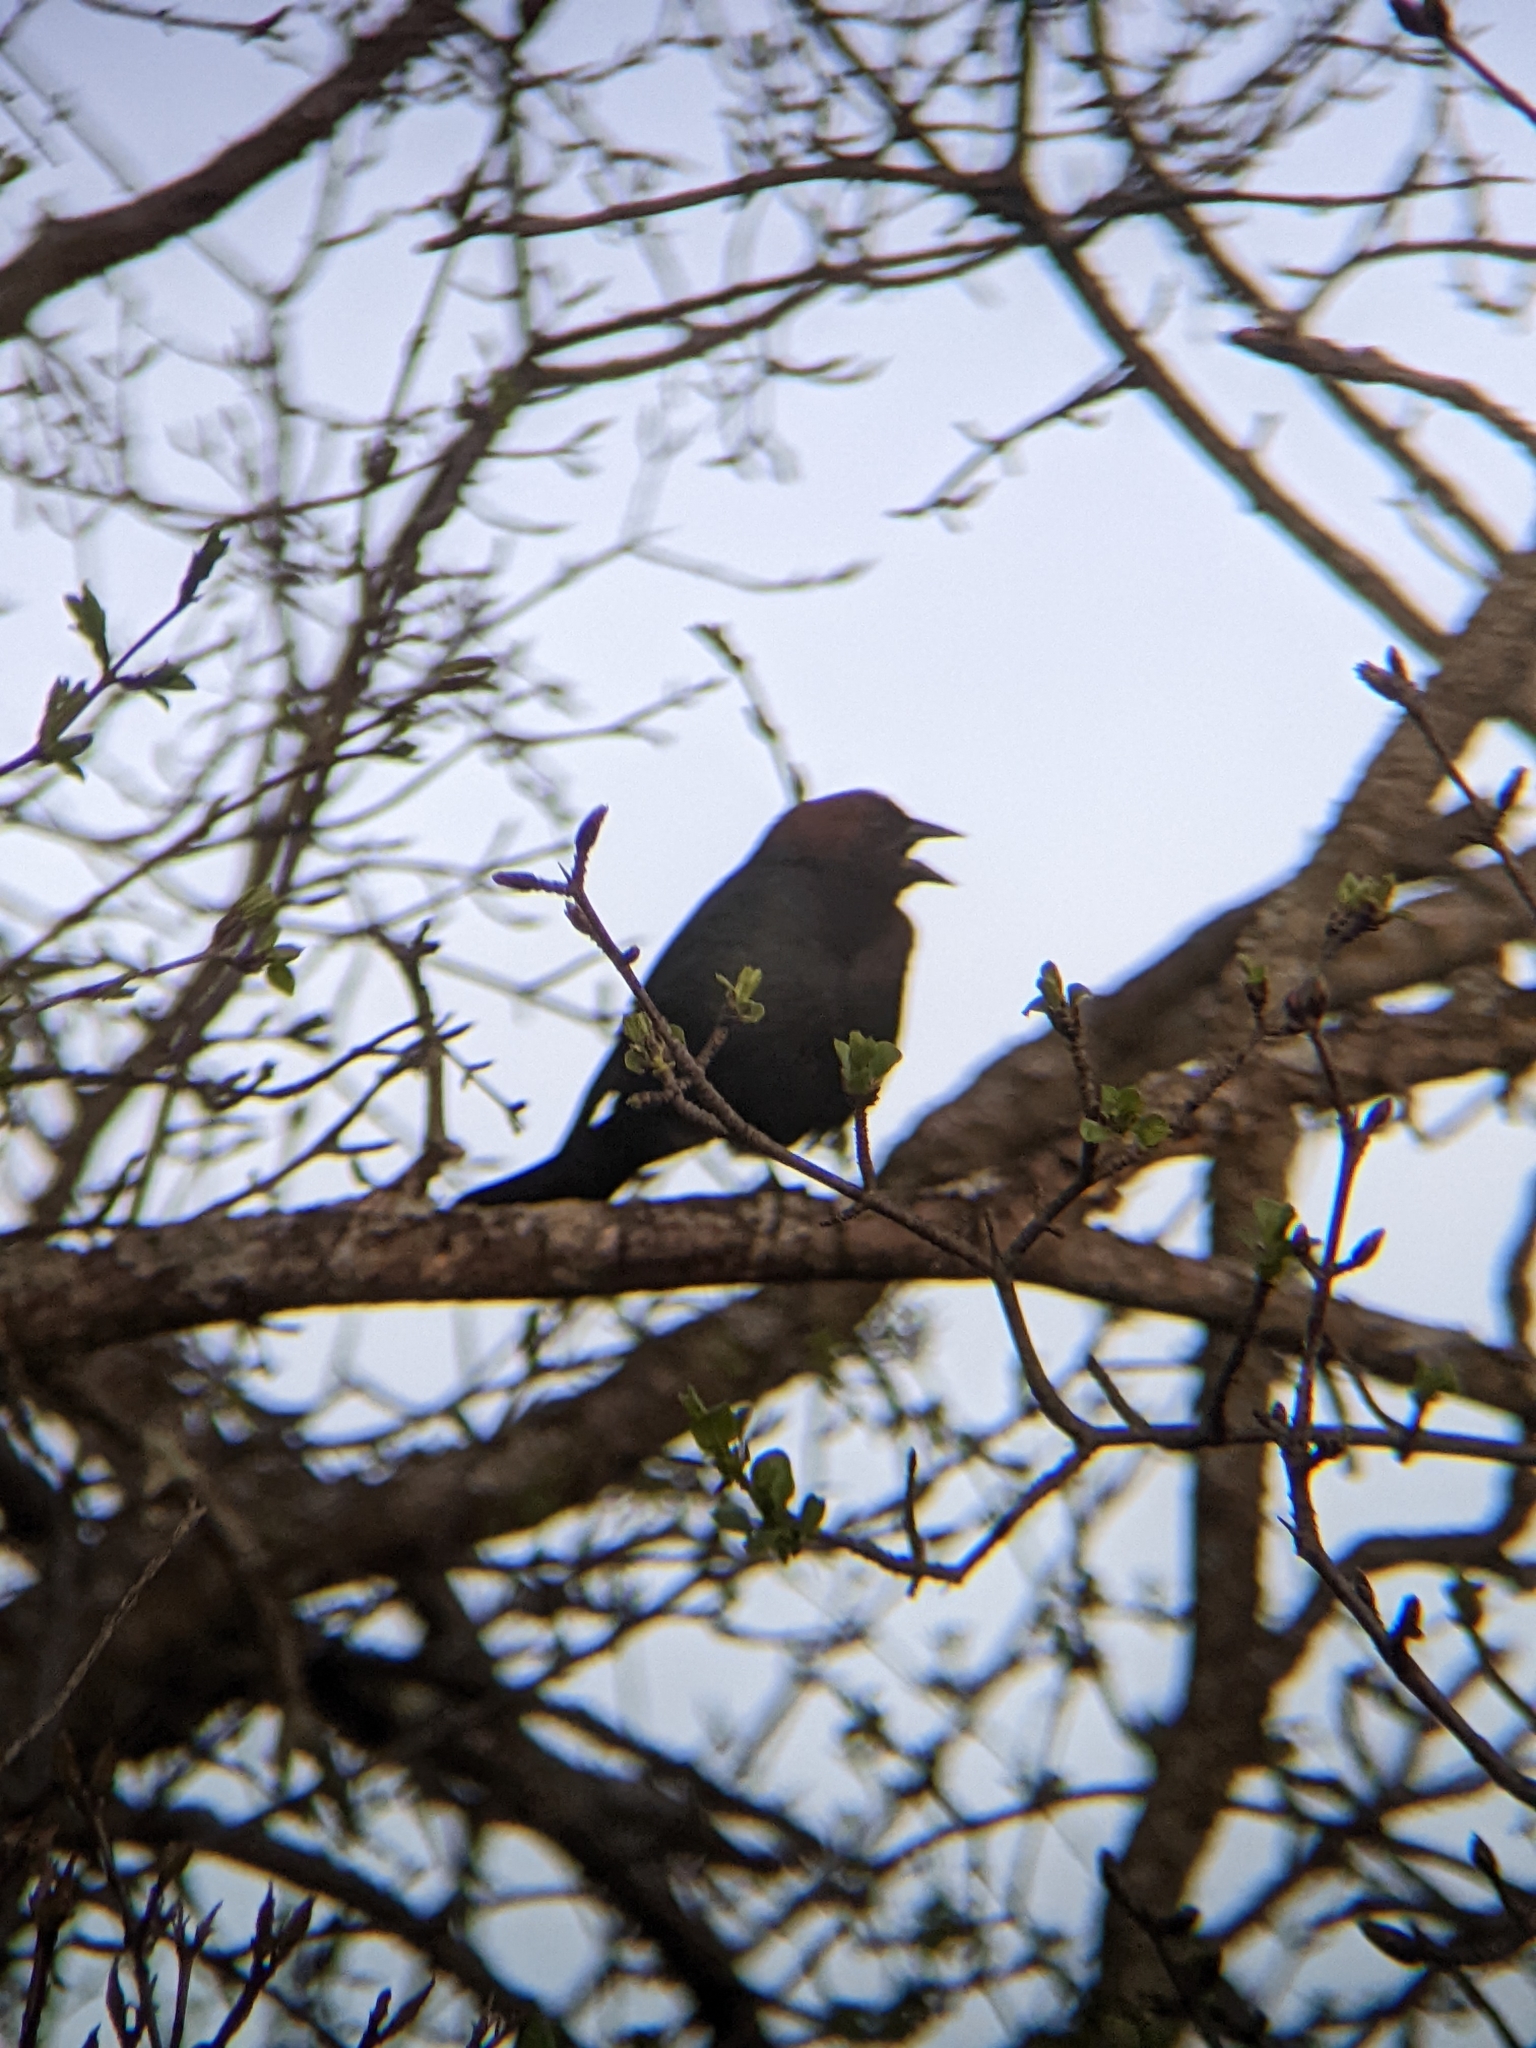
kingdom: Animalia
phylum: Chordata
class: Aves
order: Passeriformes
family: Icteridae
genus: Molothrus
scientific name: Molothrus ater
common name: Brown-headed cowbird
